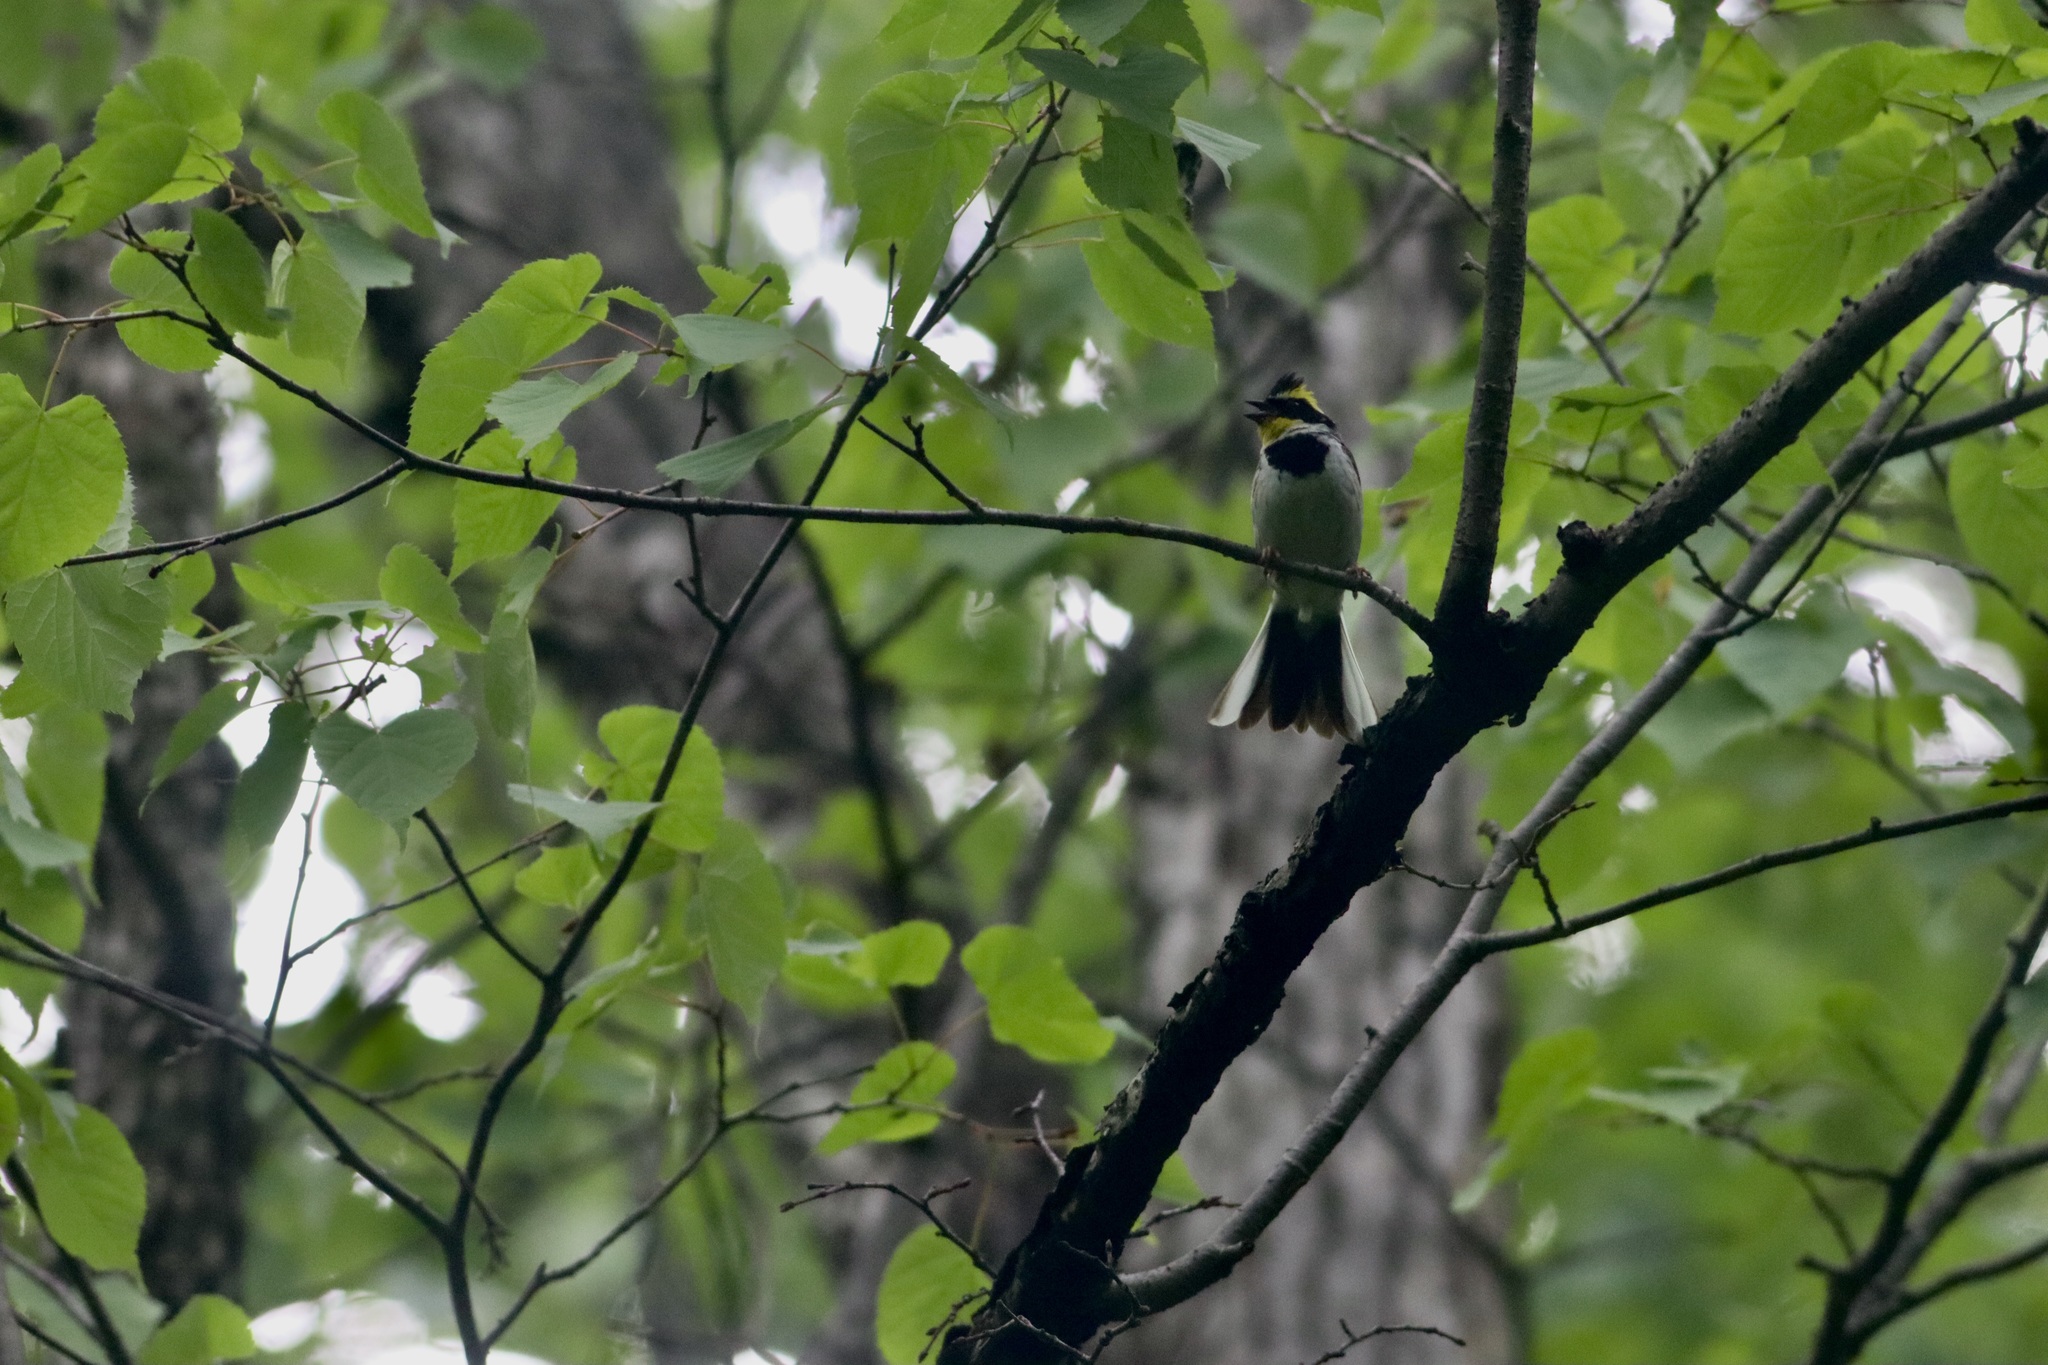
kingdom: Animalia
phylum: Chordata
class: Aves
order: Passeriformes
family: Emberizidae
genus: Emberiza
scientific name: Emberiza elegans
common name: Yellow-throated bunting
